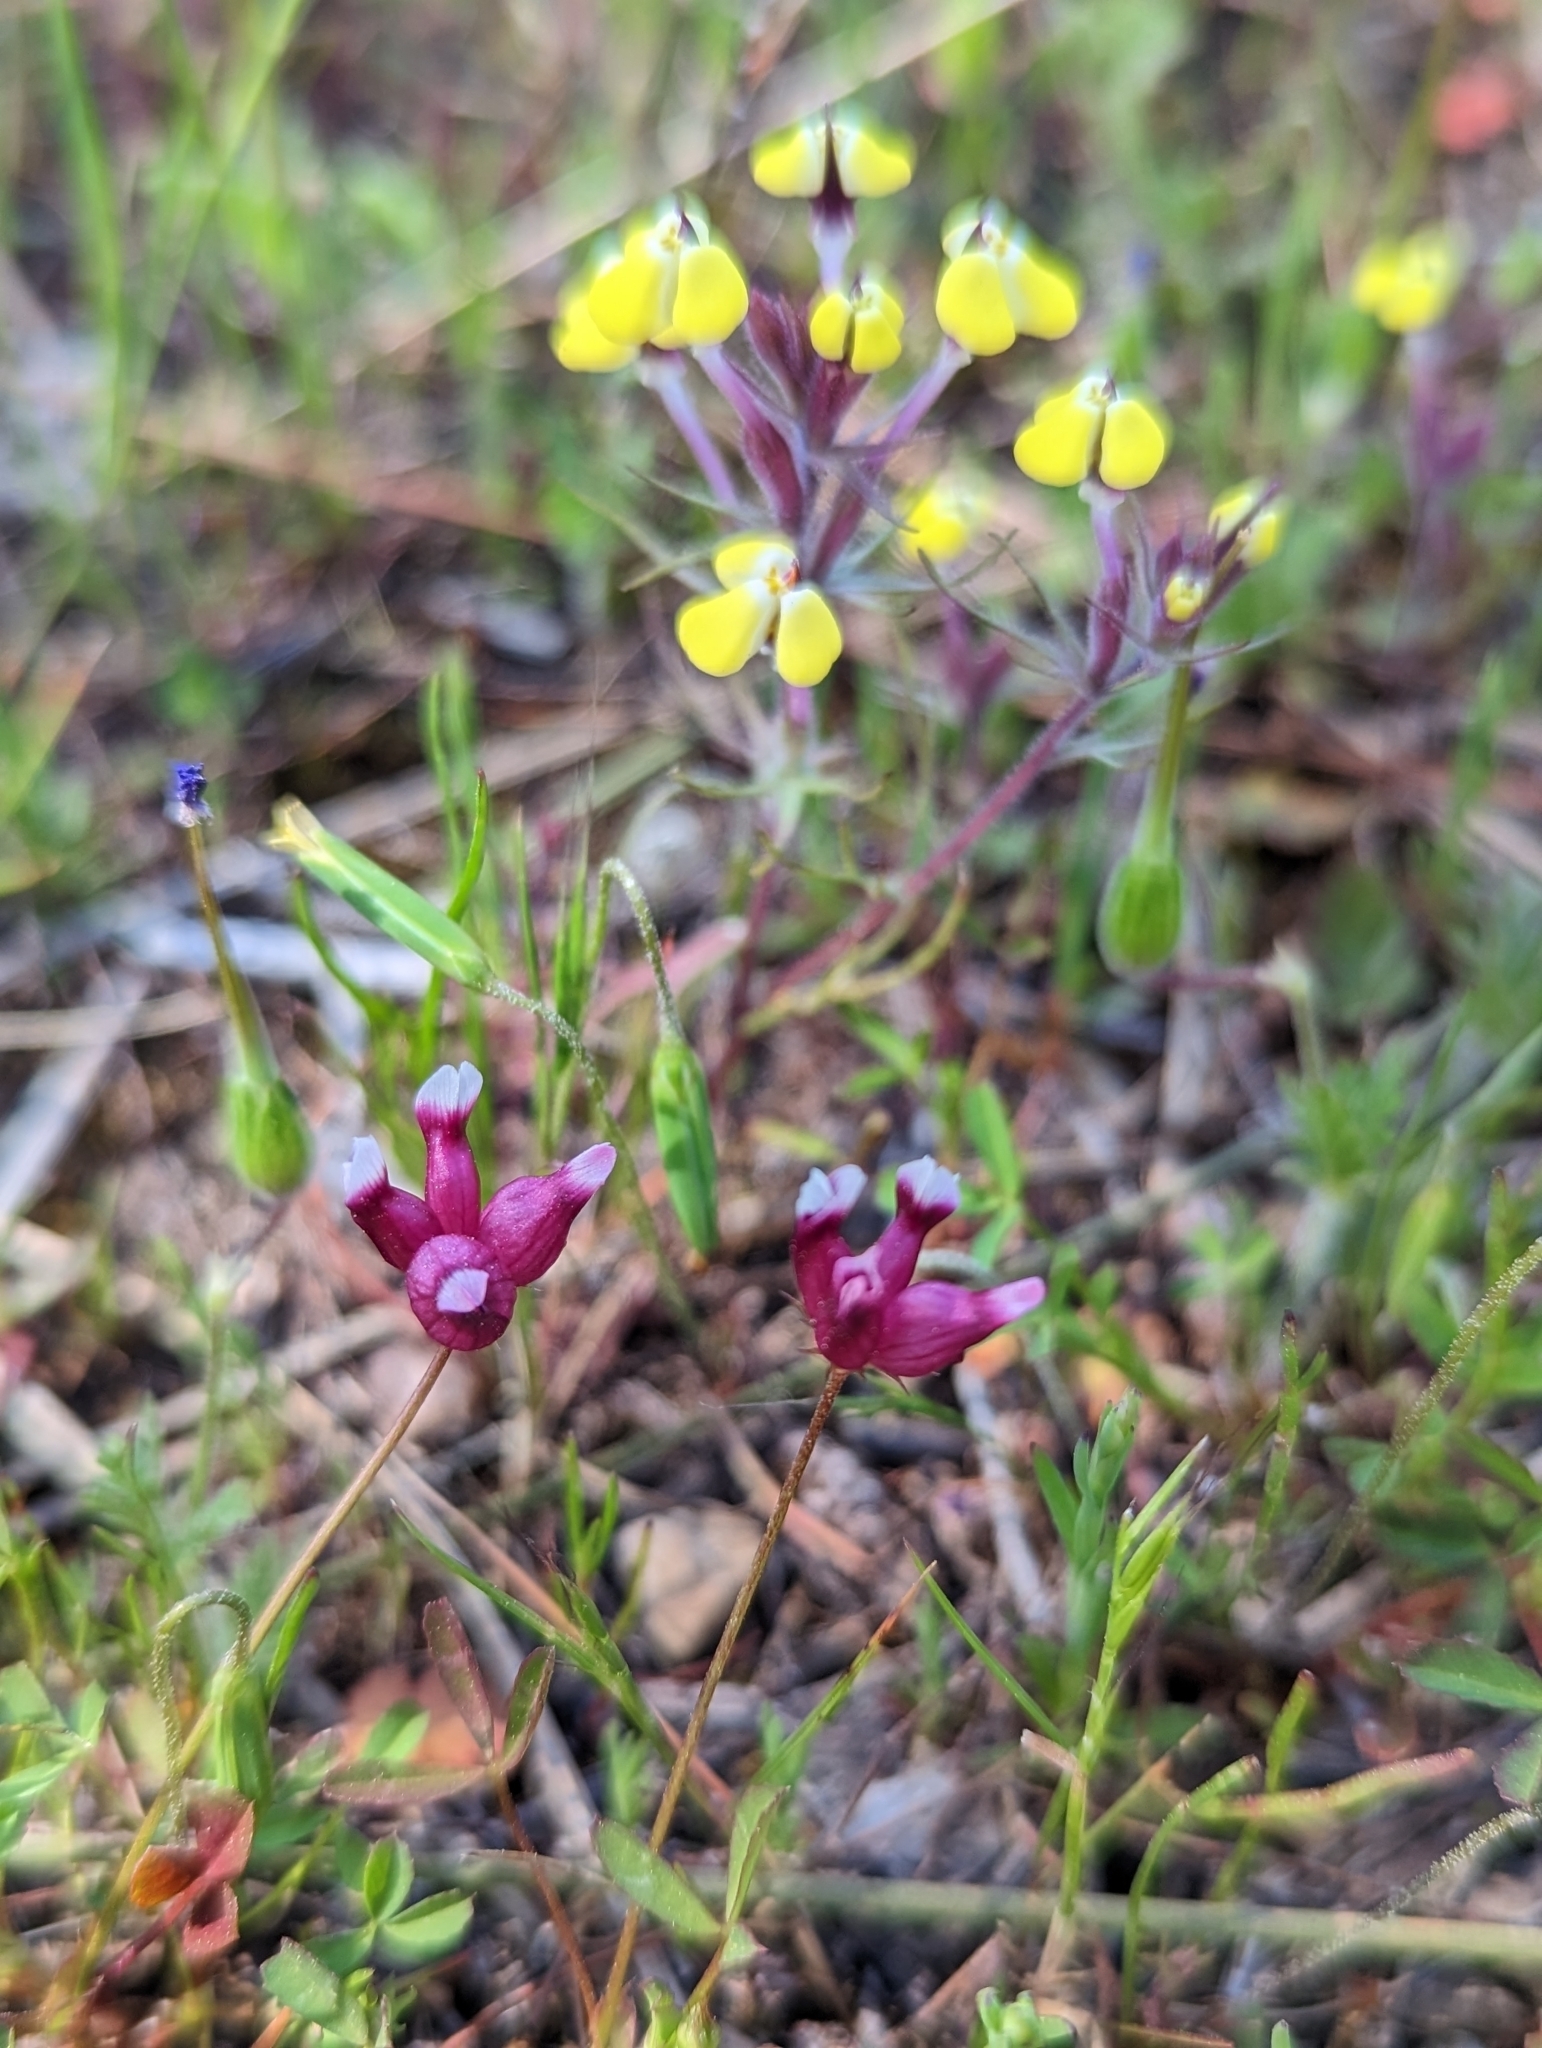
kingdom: Plantae
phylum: Tracheophyta
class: Magnoliopsida
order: Fabales
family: Fabaceae
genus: Trifolium
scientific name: Trifolium depauperatum
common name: Poverty clover
